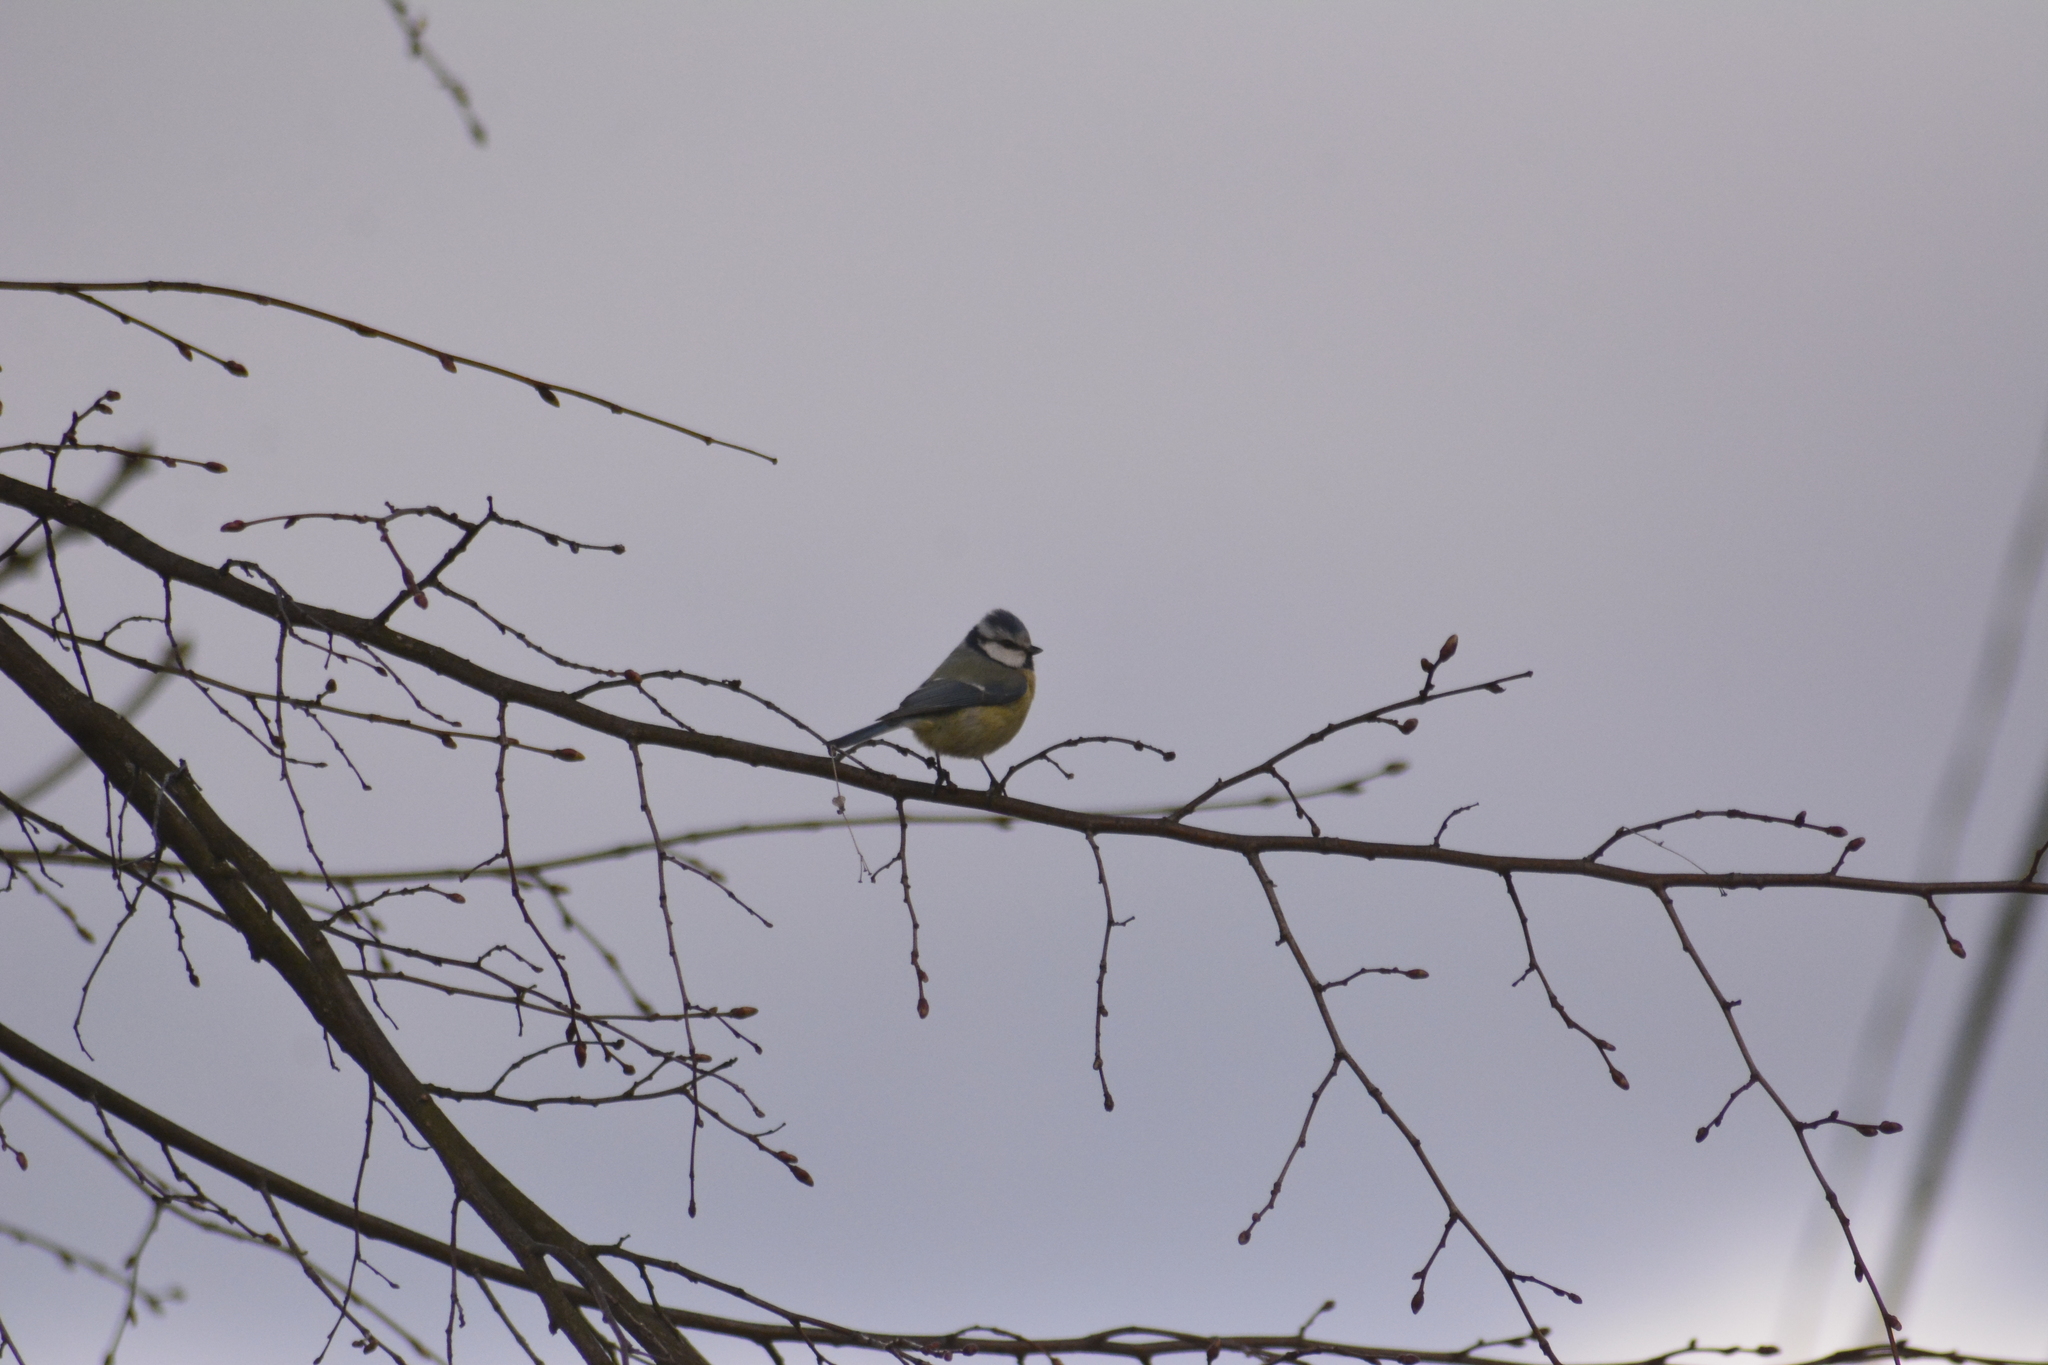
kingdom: Animalia
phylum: Chordata
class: Aves
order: Passeriformes
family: Paridae
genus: Cyanistes
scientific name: Cyanistes caeruleus
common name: Eurasian blue tit
